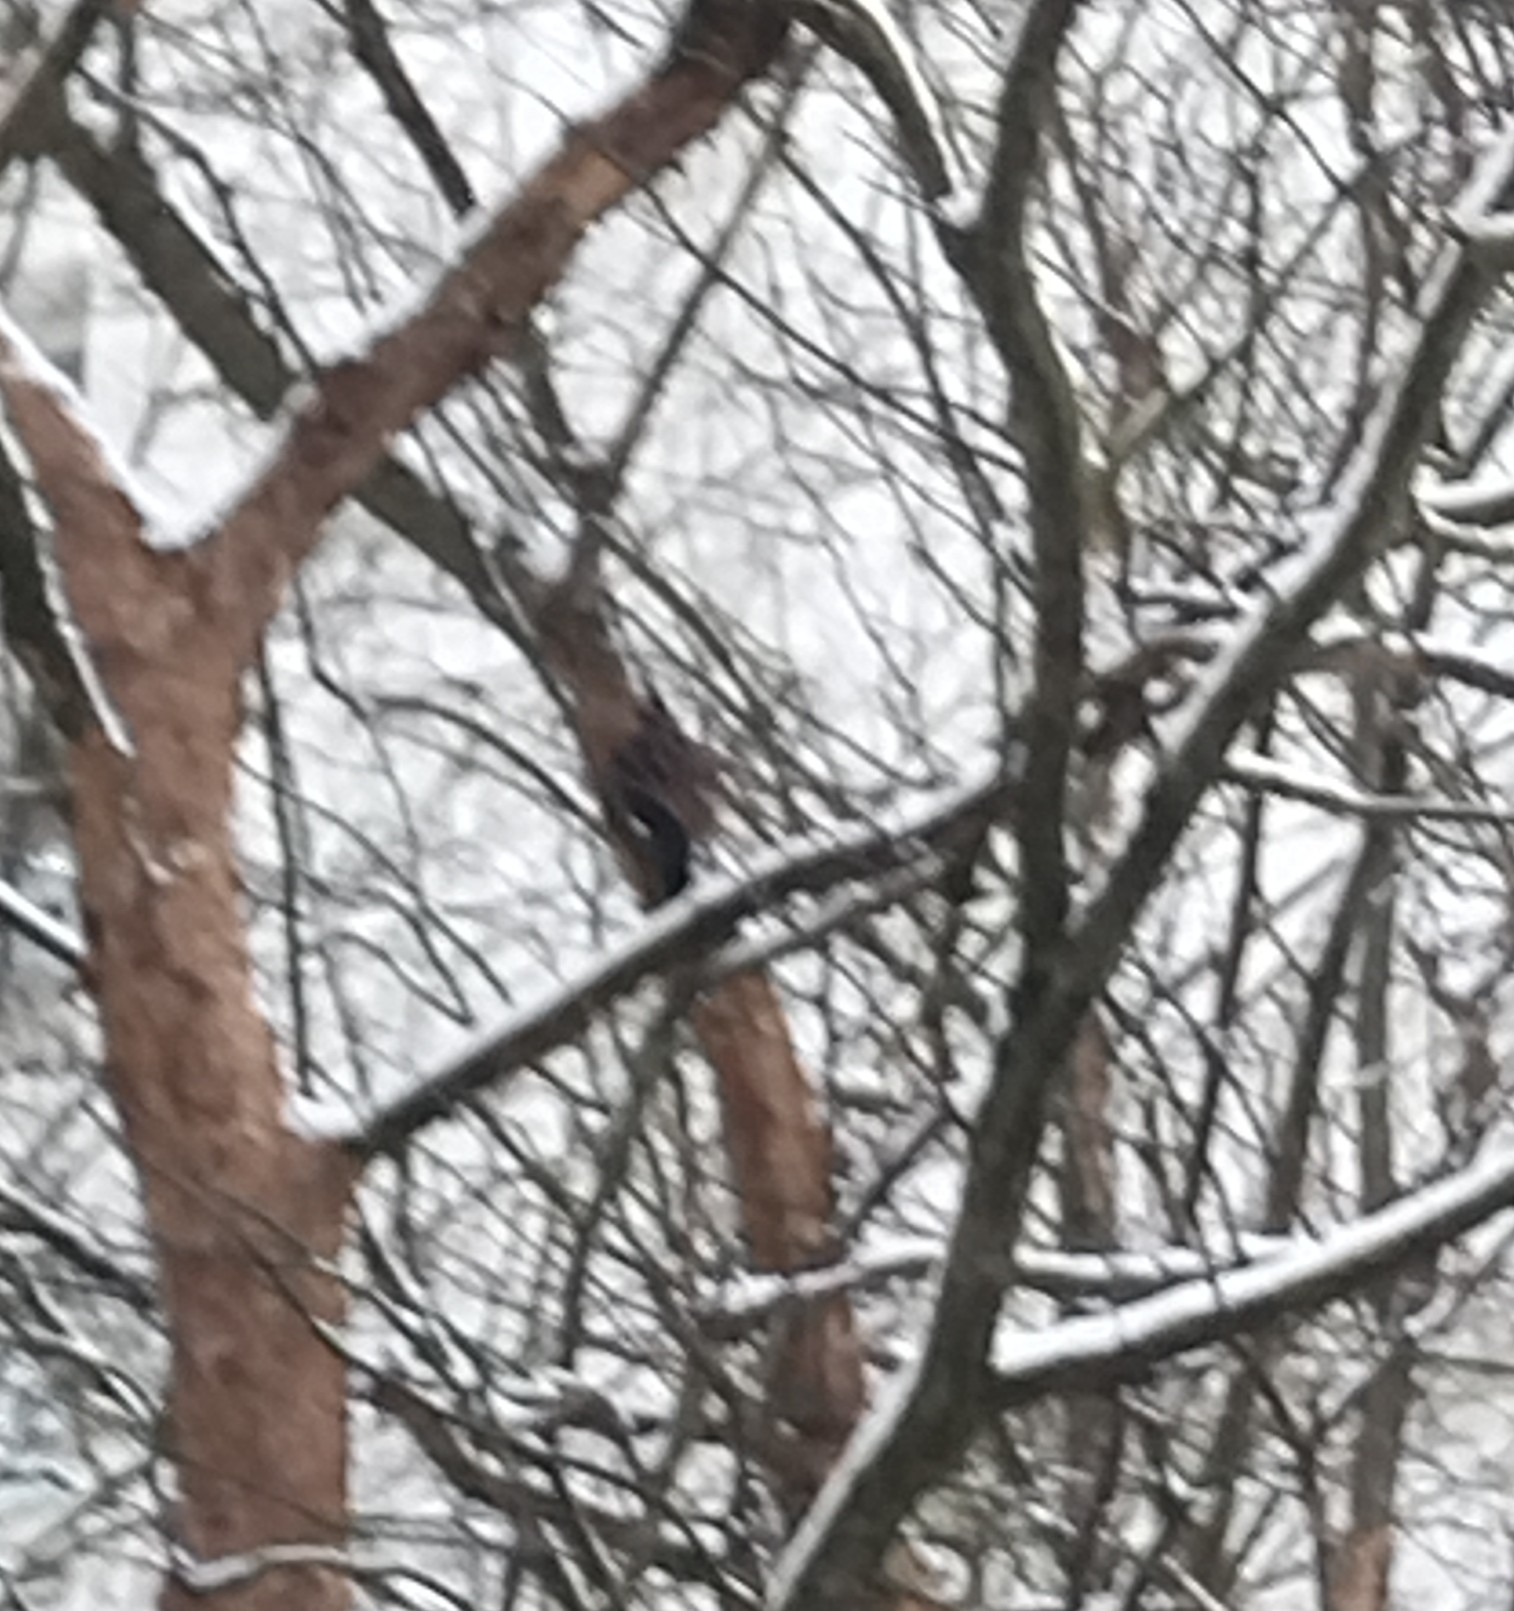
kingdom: Animalia
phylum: Chordata
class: Aves
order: Piciformes
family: Picidae
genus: Dryocopus
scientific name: Dryocopus martius
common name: Black woodpecker
